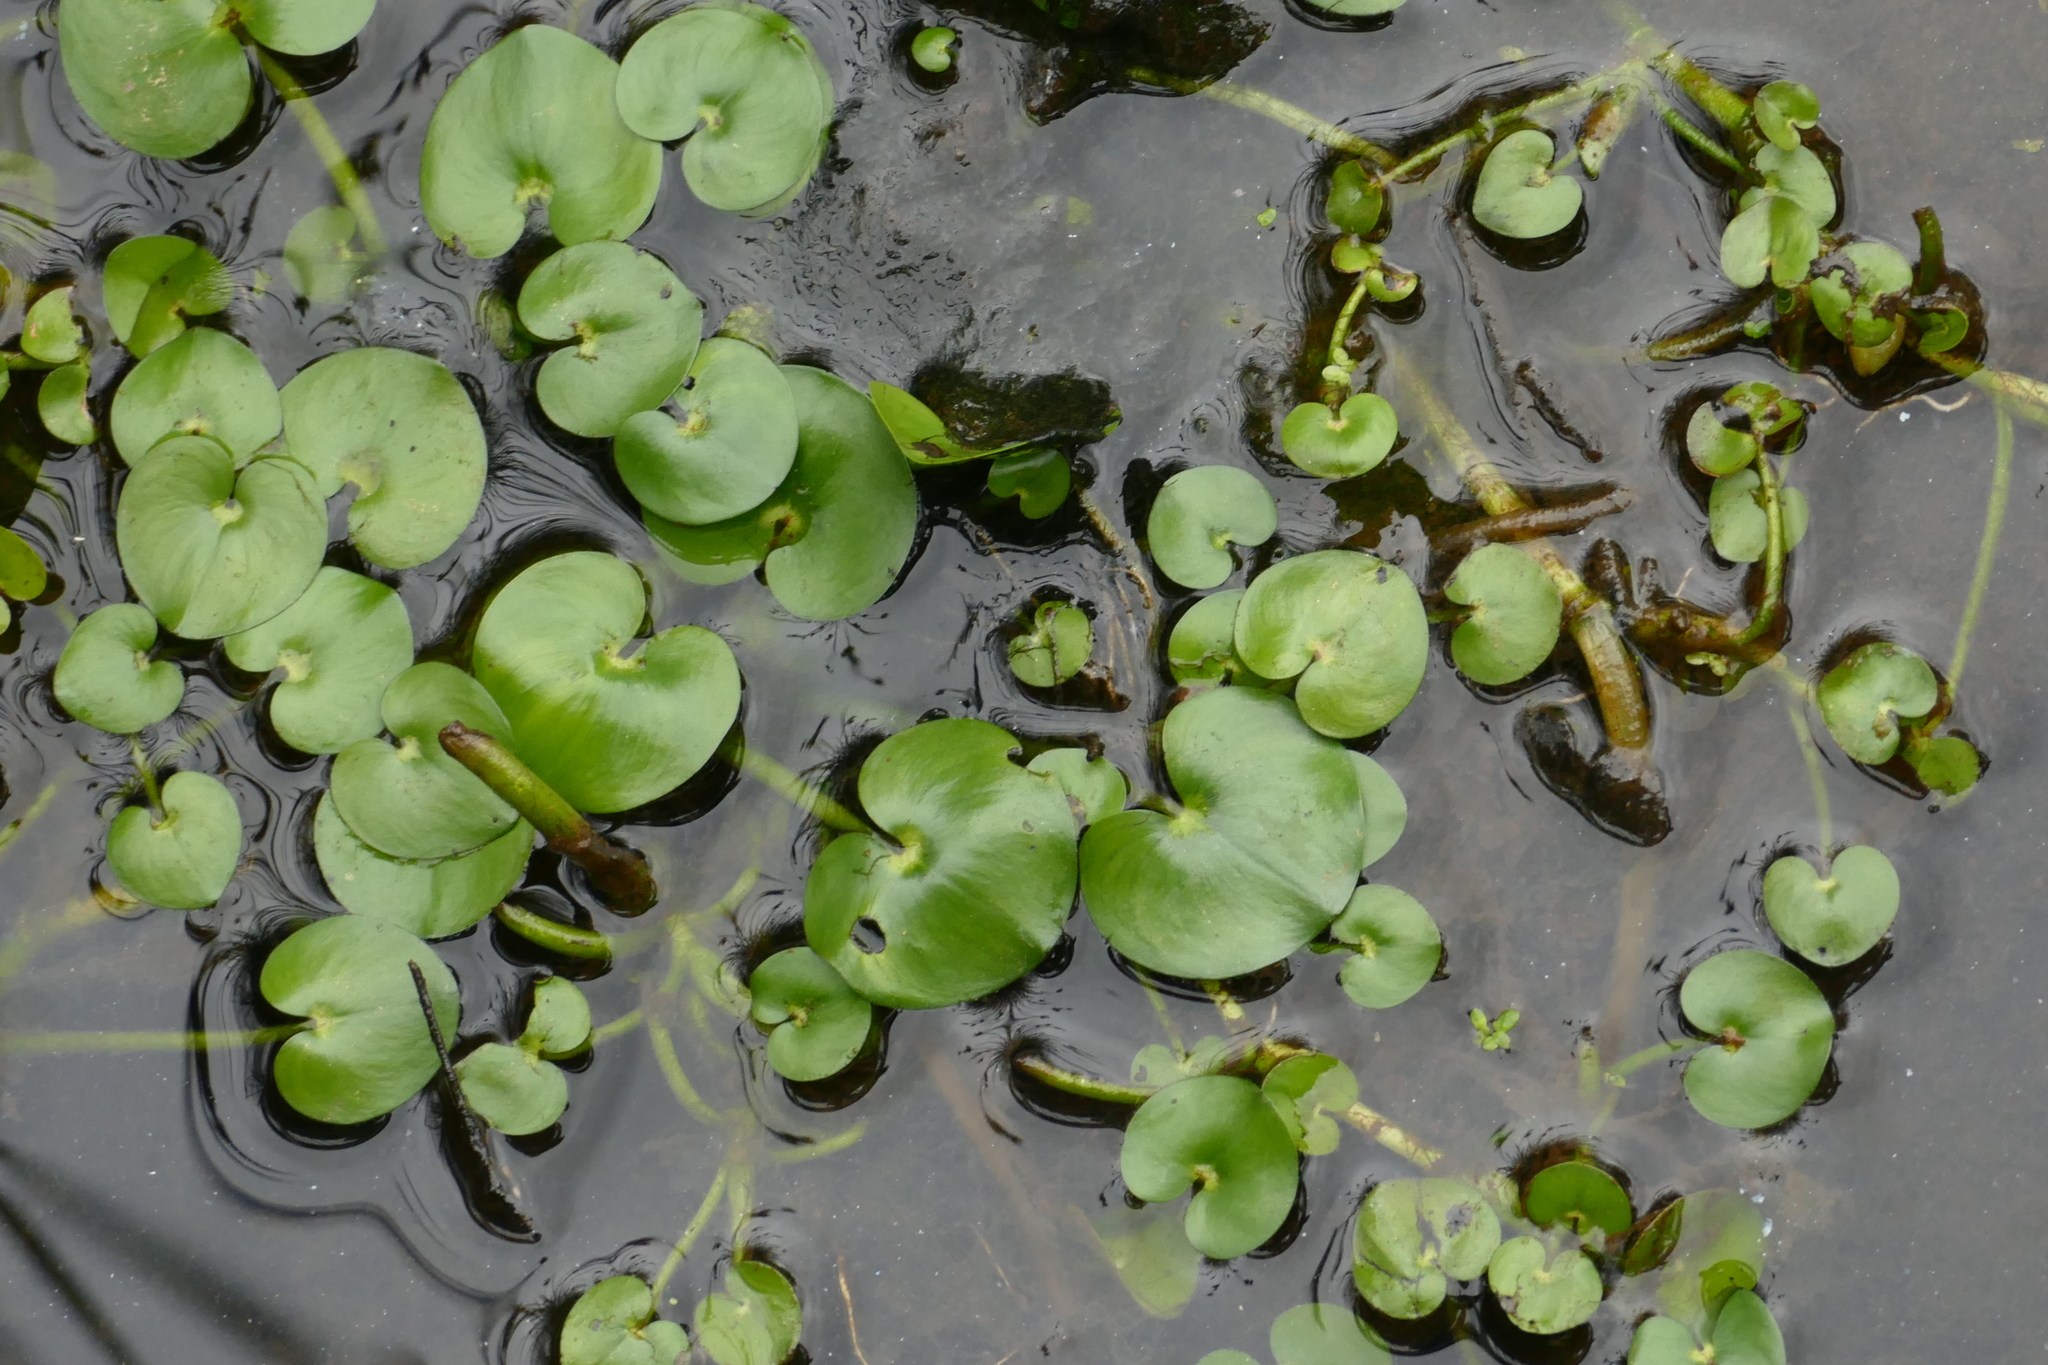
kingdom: Plantae
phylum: Tracheophyta
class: Liliopsida
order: Commelinales
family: Pontederiaceae
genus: Heteranthera
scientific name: Heteranthera reniformis
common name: Kidneyleaf mudplantain
